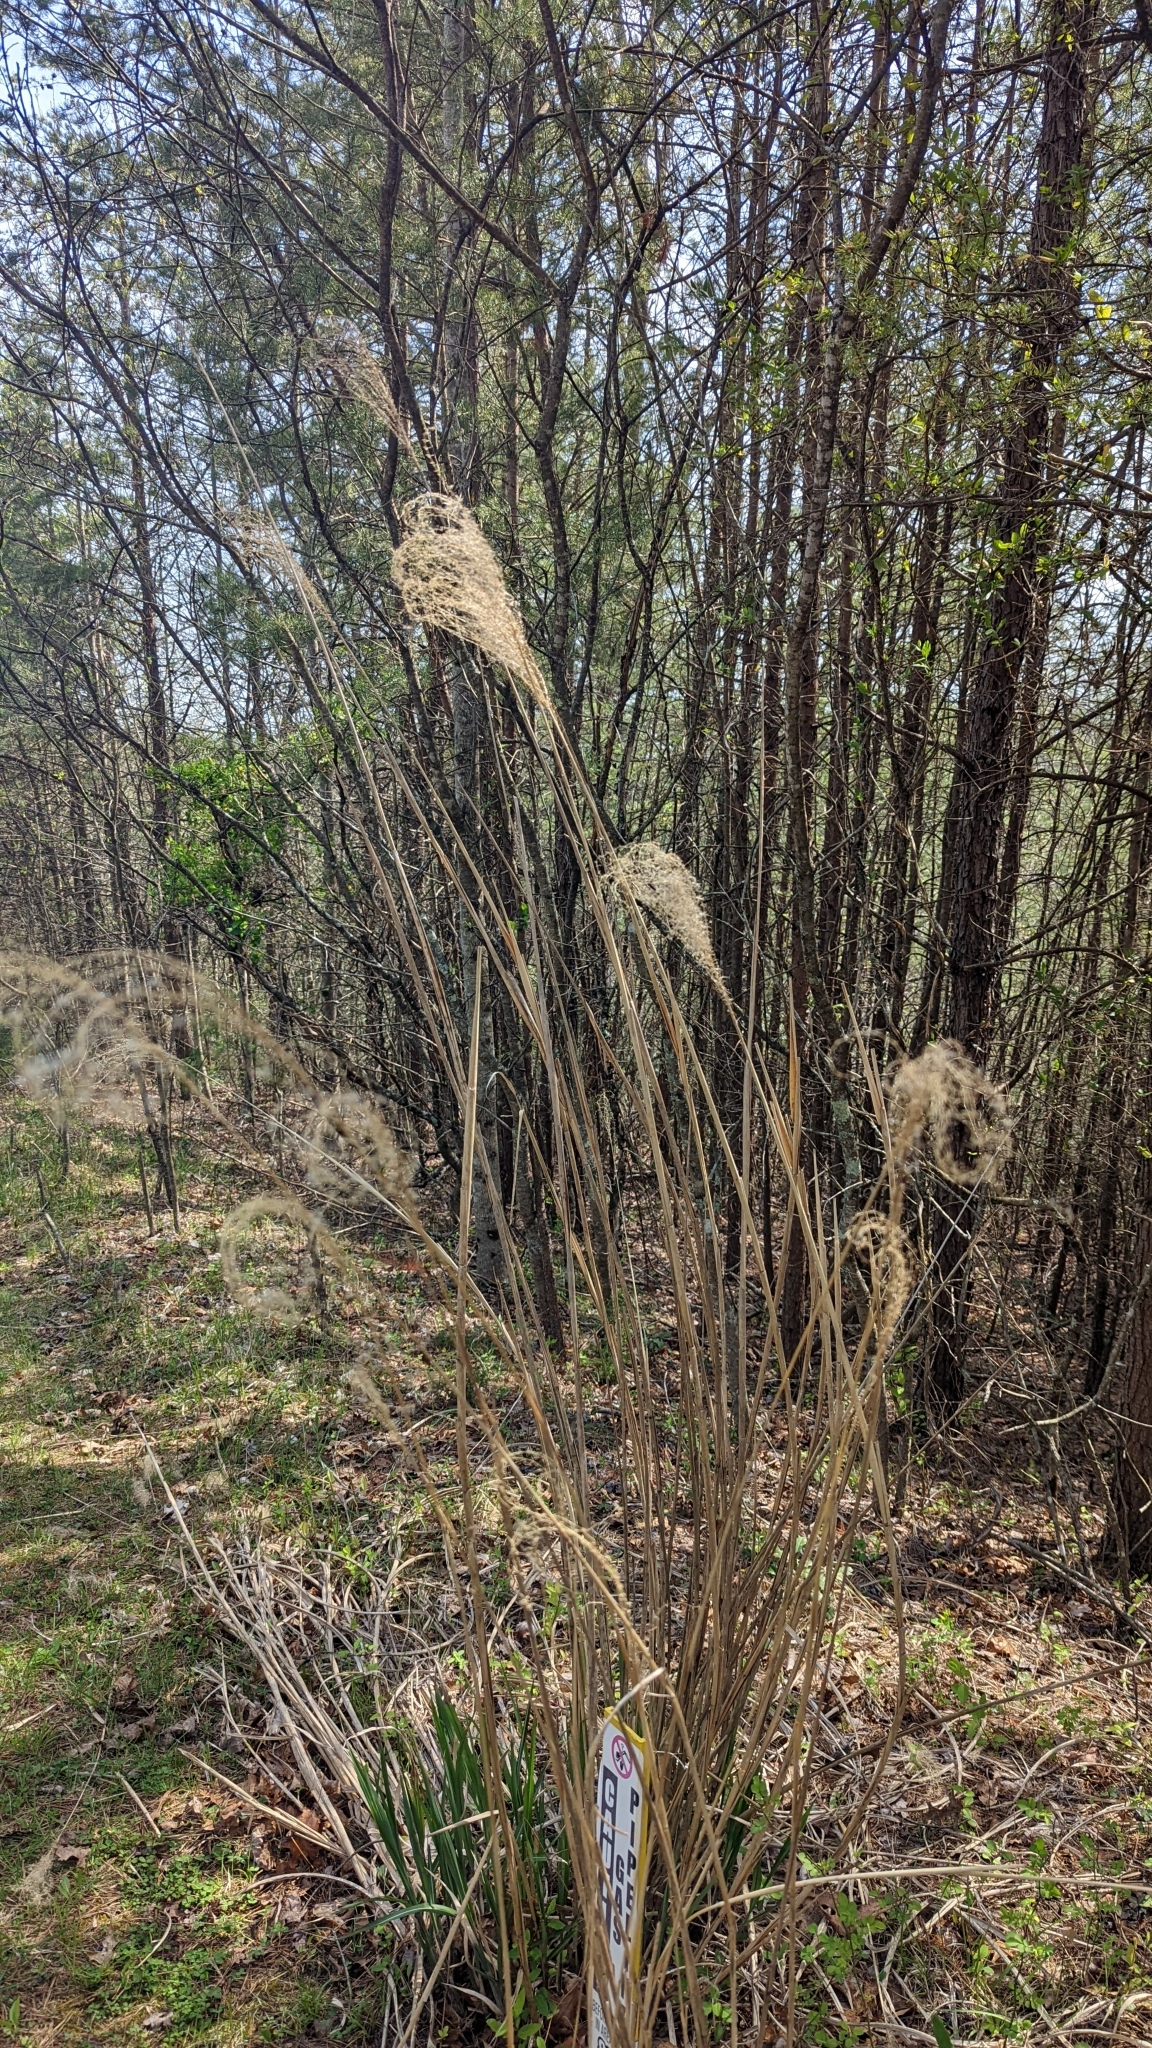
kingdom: Plantae
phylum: Tracheophyta
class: Liliopsida
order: Poales
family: Poaceae
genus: Miscanthus
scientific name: Miscanthus sinensis
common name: Chinese silvergrass
